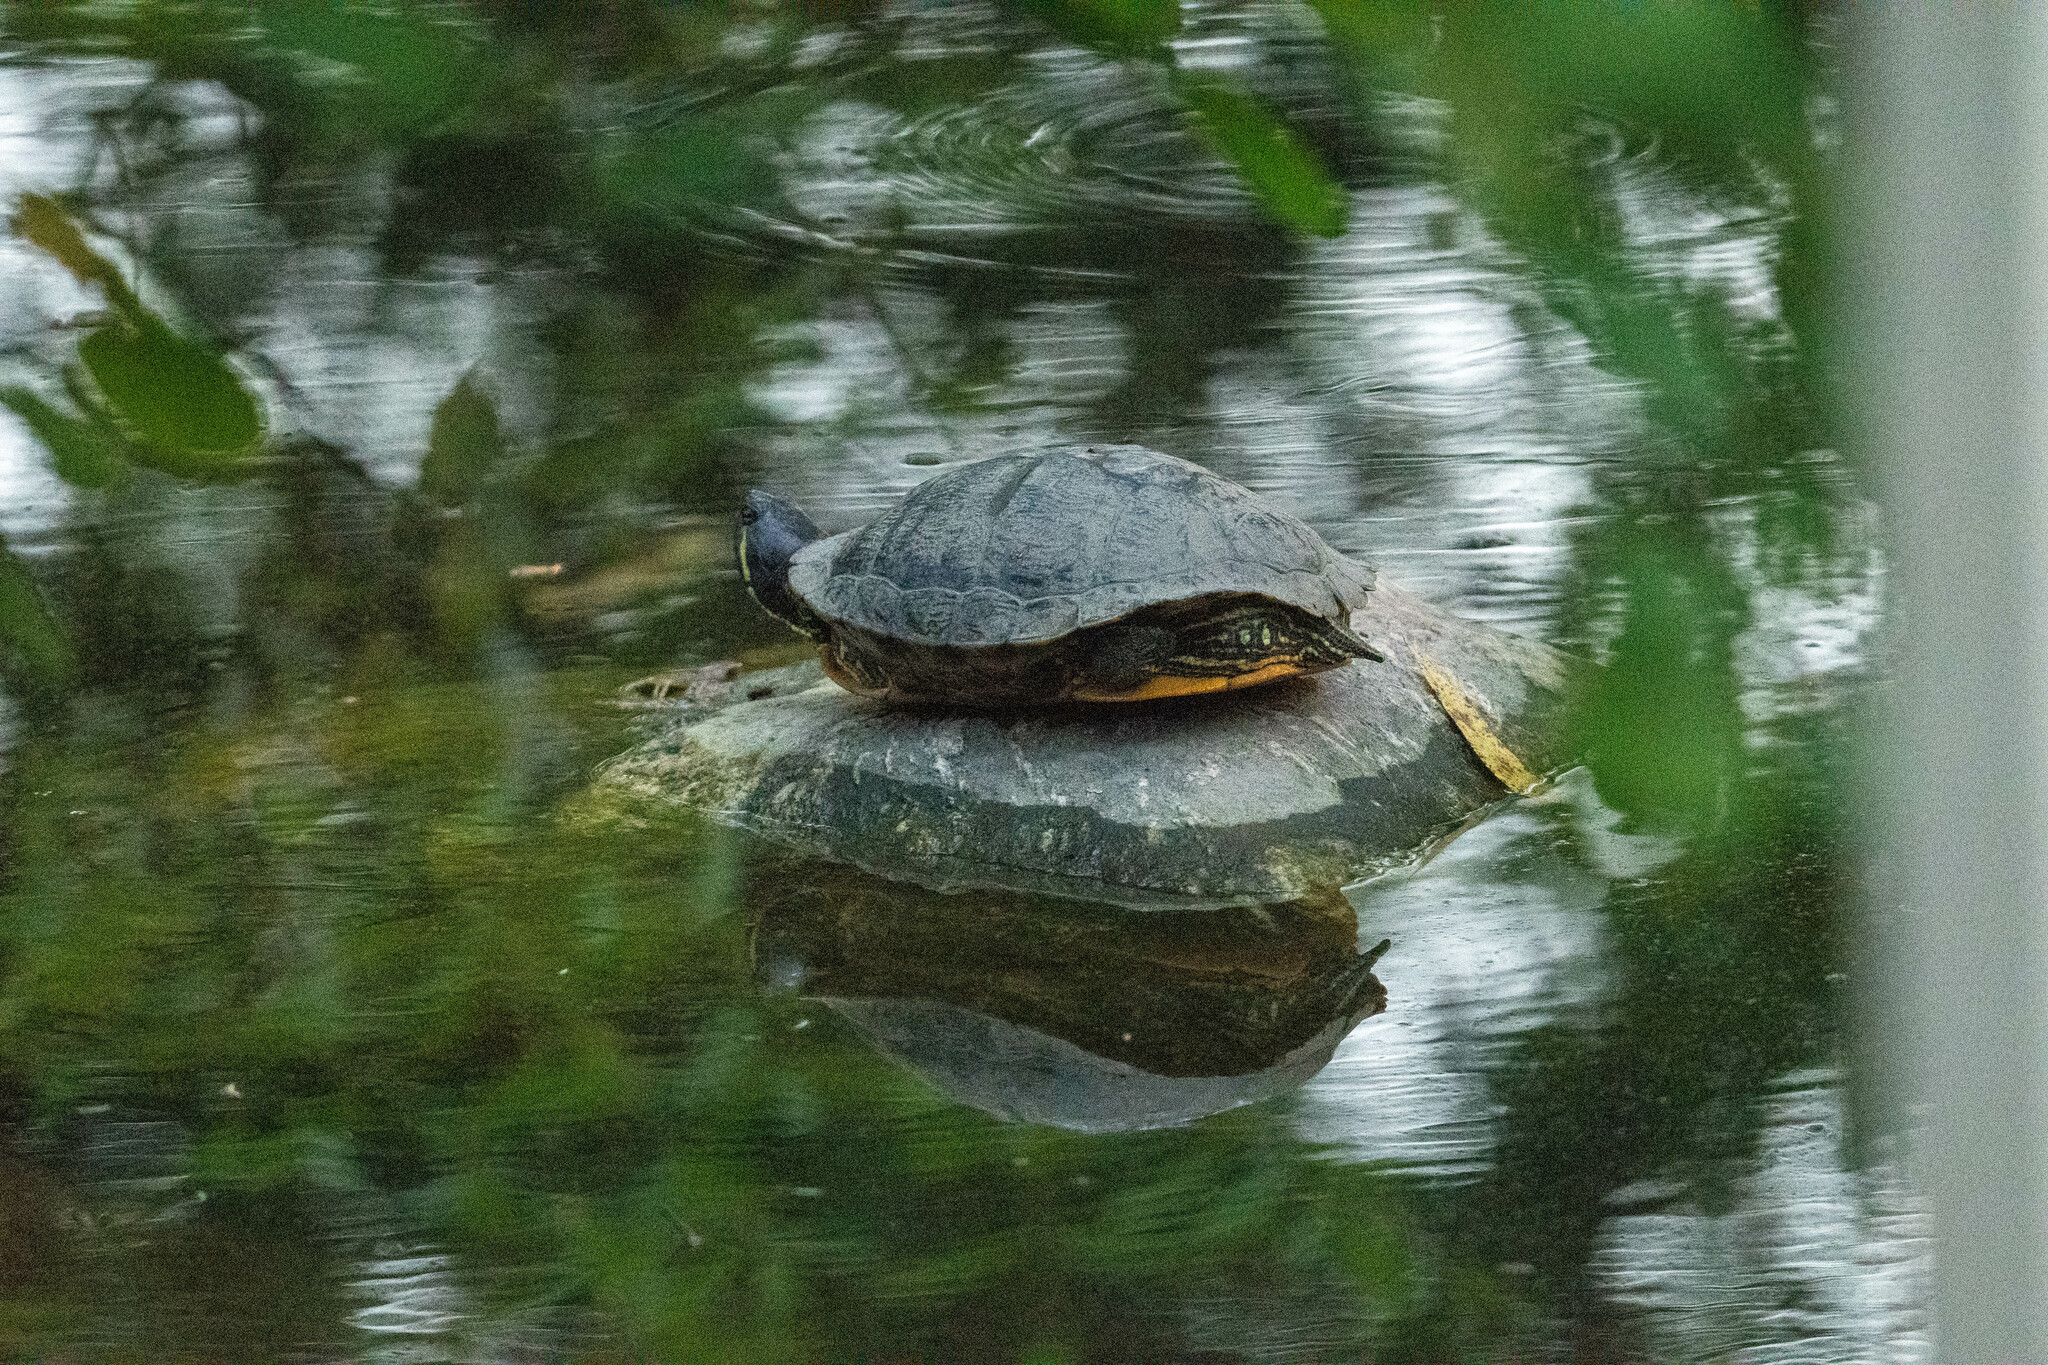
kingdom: Animalia
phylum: Chordata
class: Testudines
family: Emydidae
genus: Trachemys
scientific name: Trachemys scripta
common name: Slider
